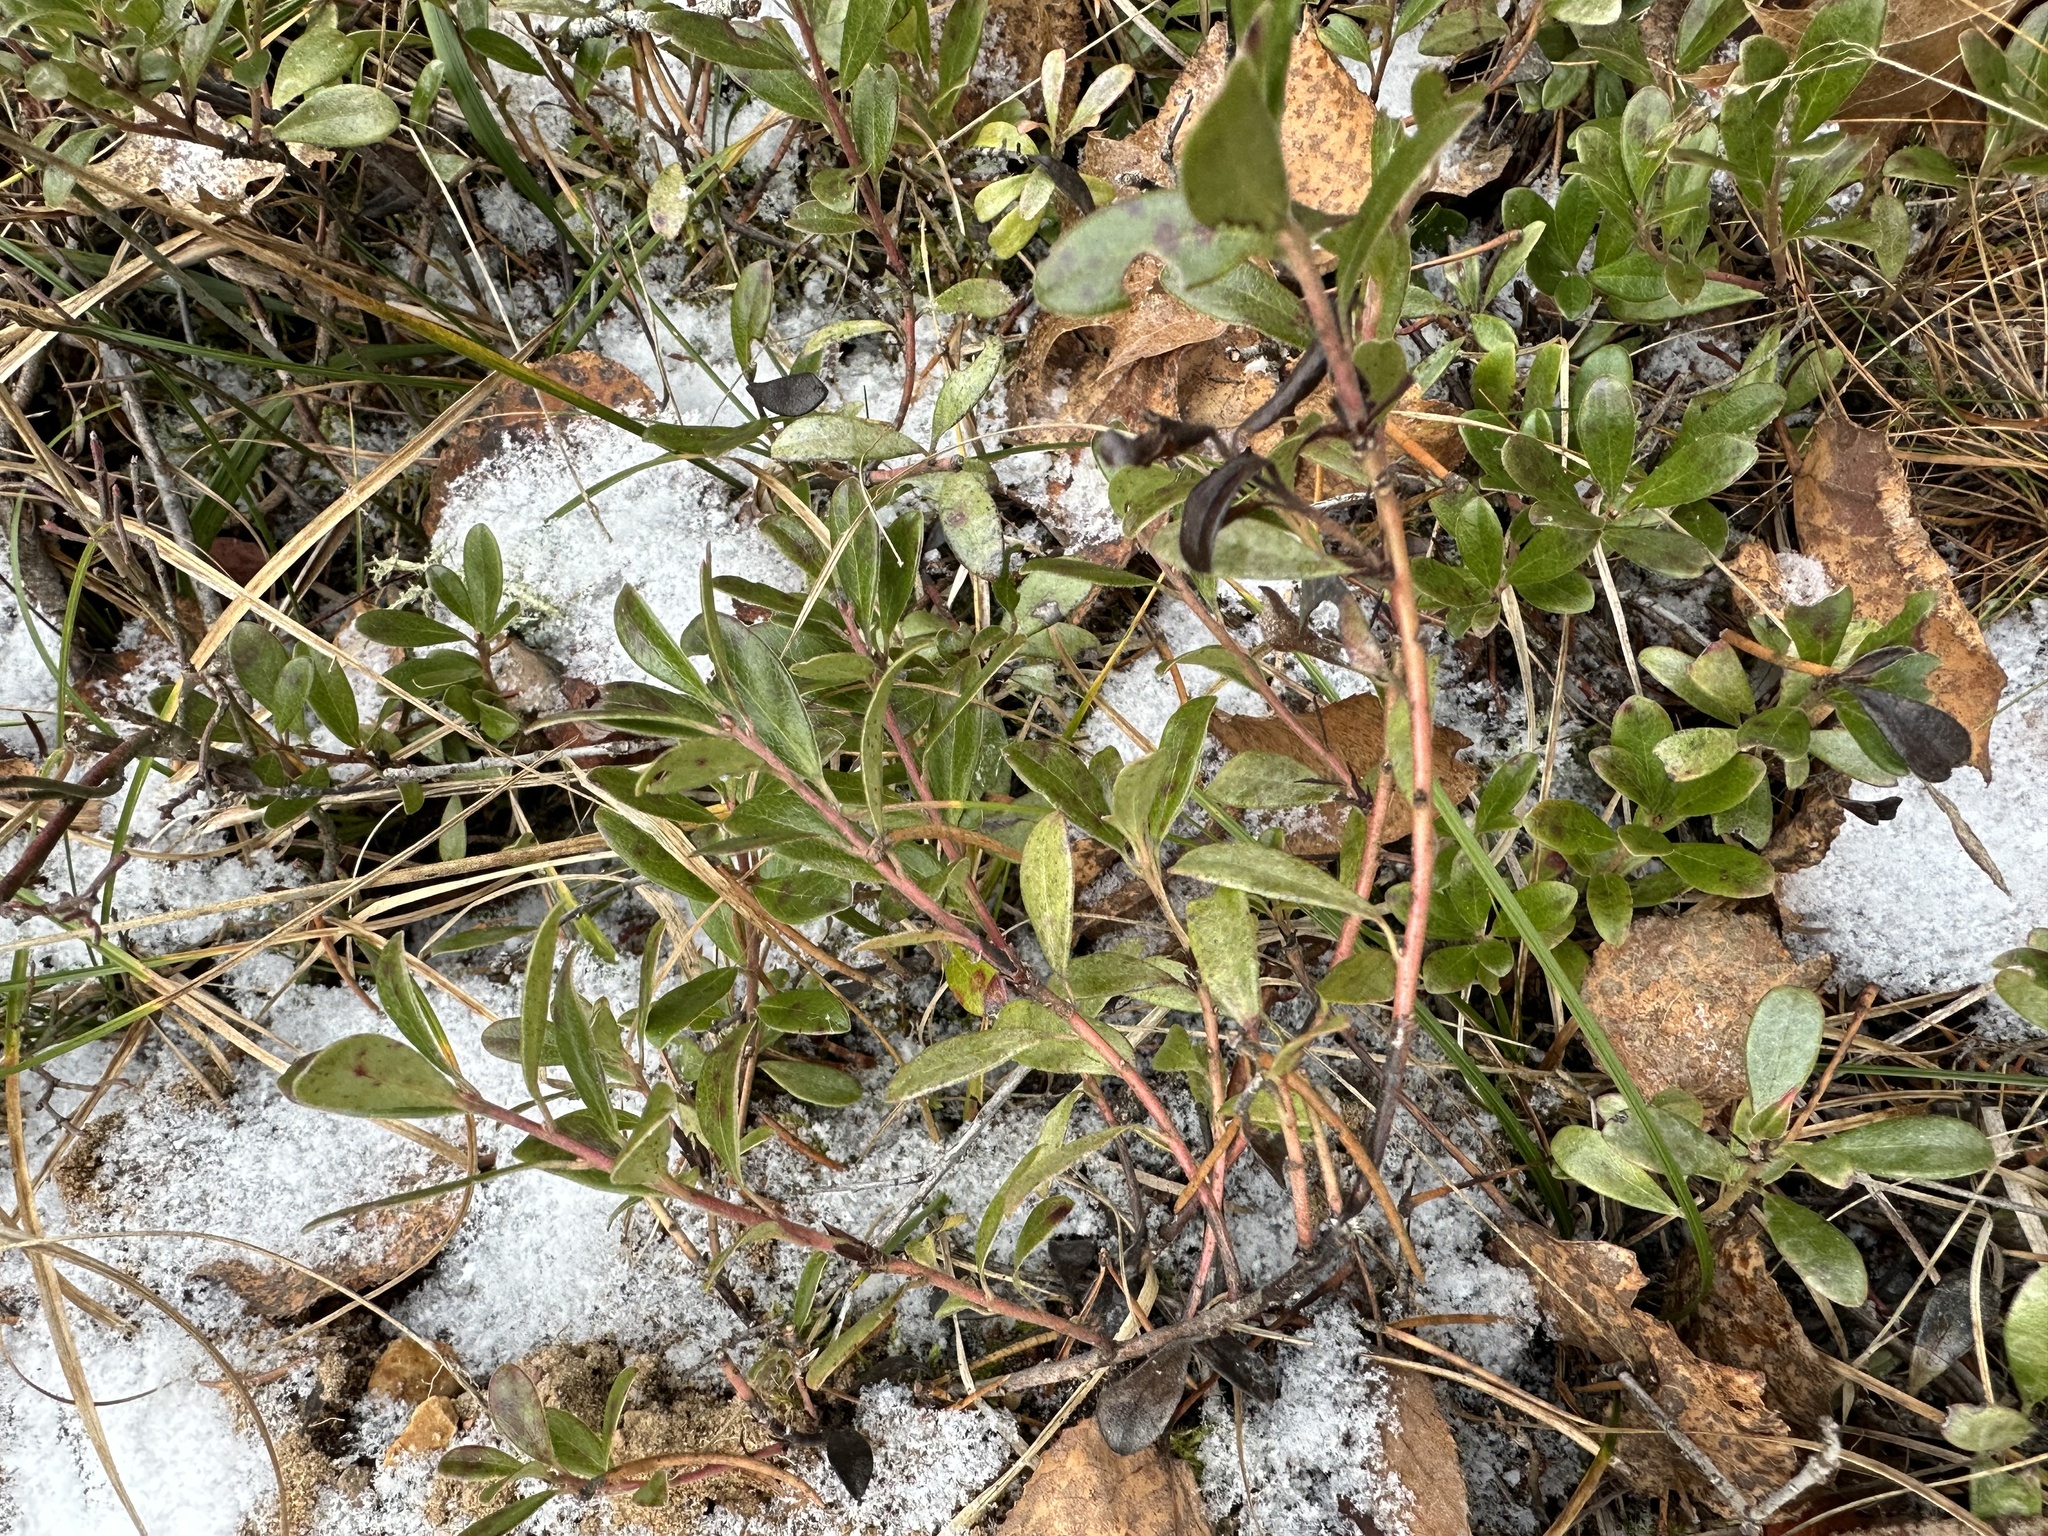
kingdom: Plantae
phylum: Tracheophyta
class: Magnoliopsida
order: Ericales
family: Ericaceae
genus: Arctostaphylos
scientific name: Arctostaphylos uva-ursi
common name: Bearberry
